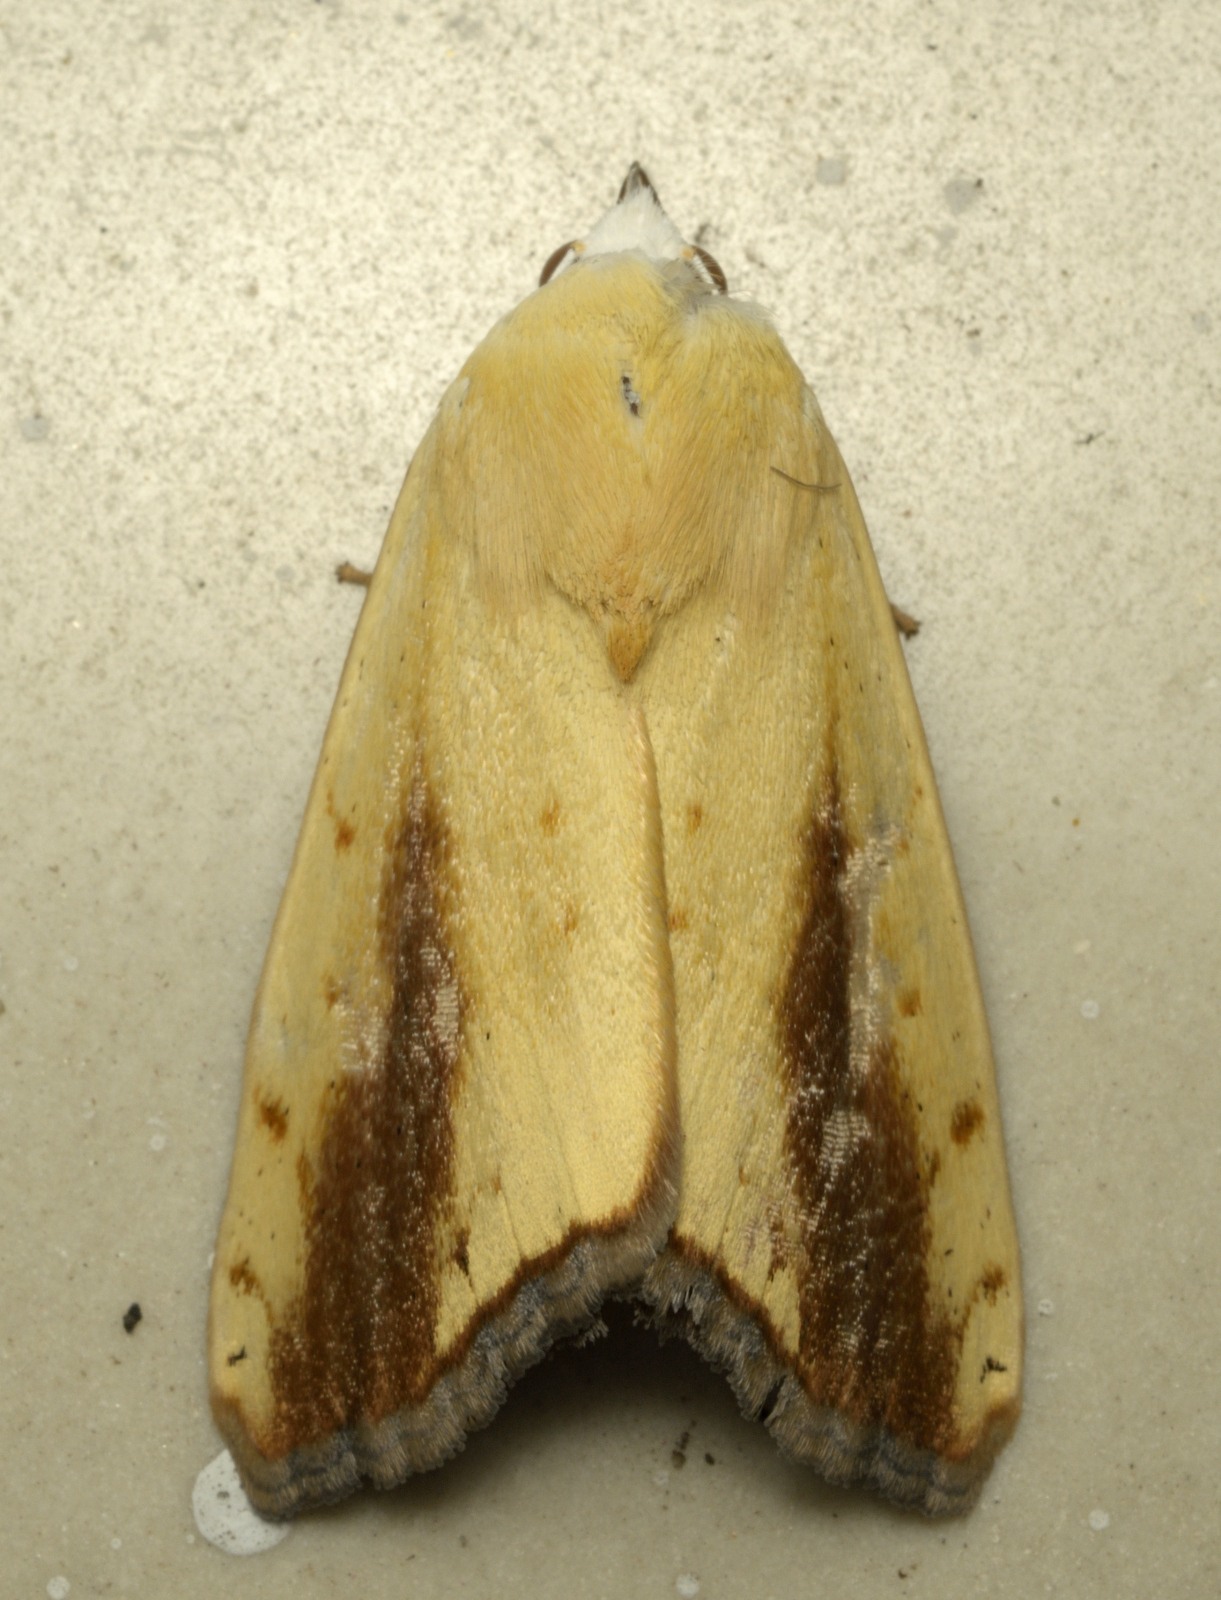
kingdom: Animalia
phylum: Arthropoda
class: Insecta
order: Lepidoptera
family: Nolidae
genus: Xanthodes
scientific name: Xanthodes intersepta
